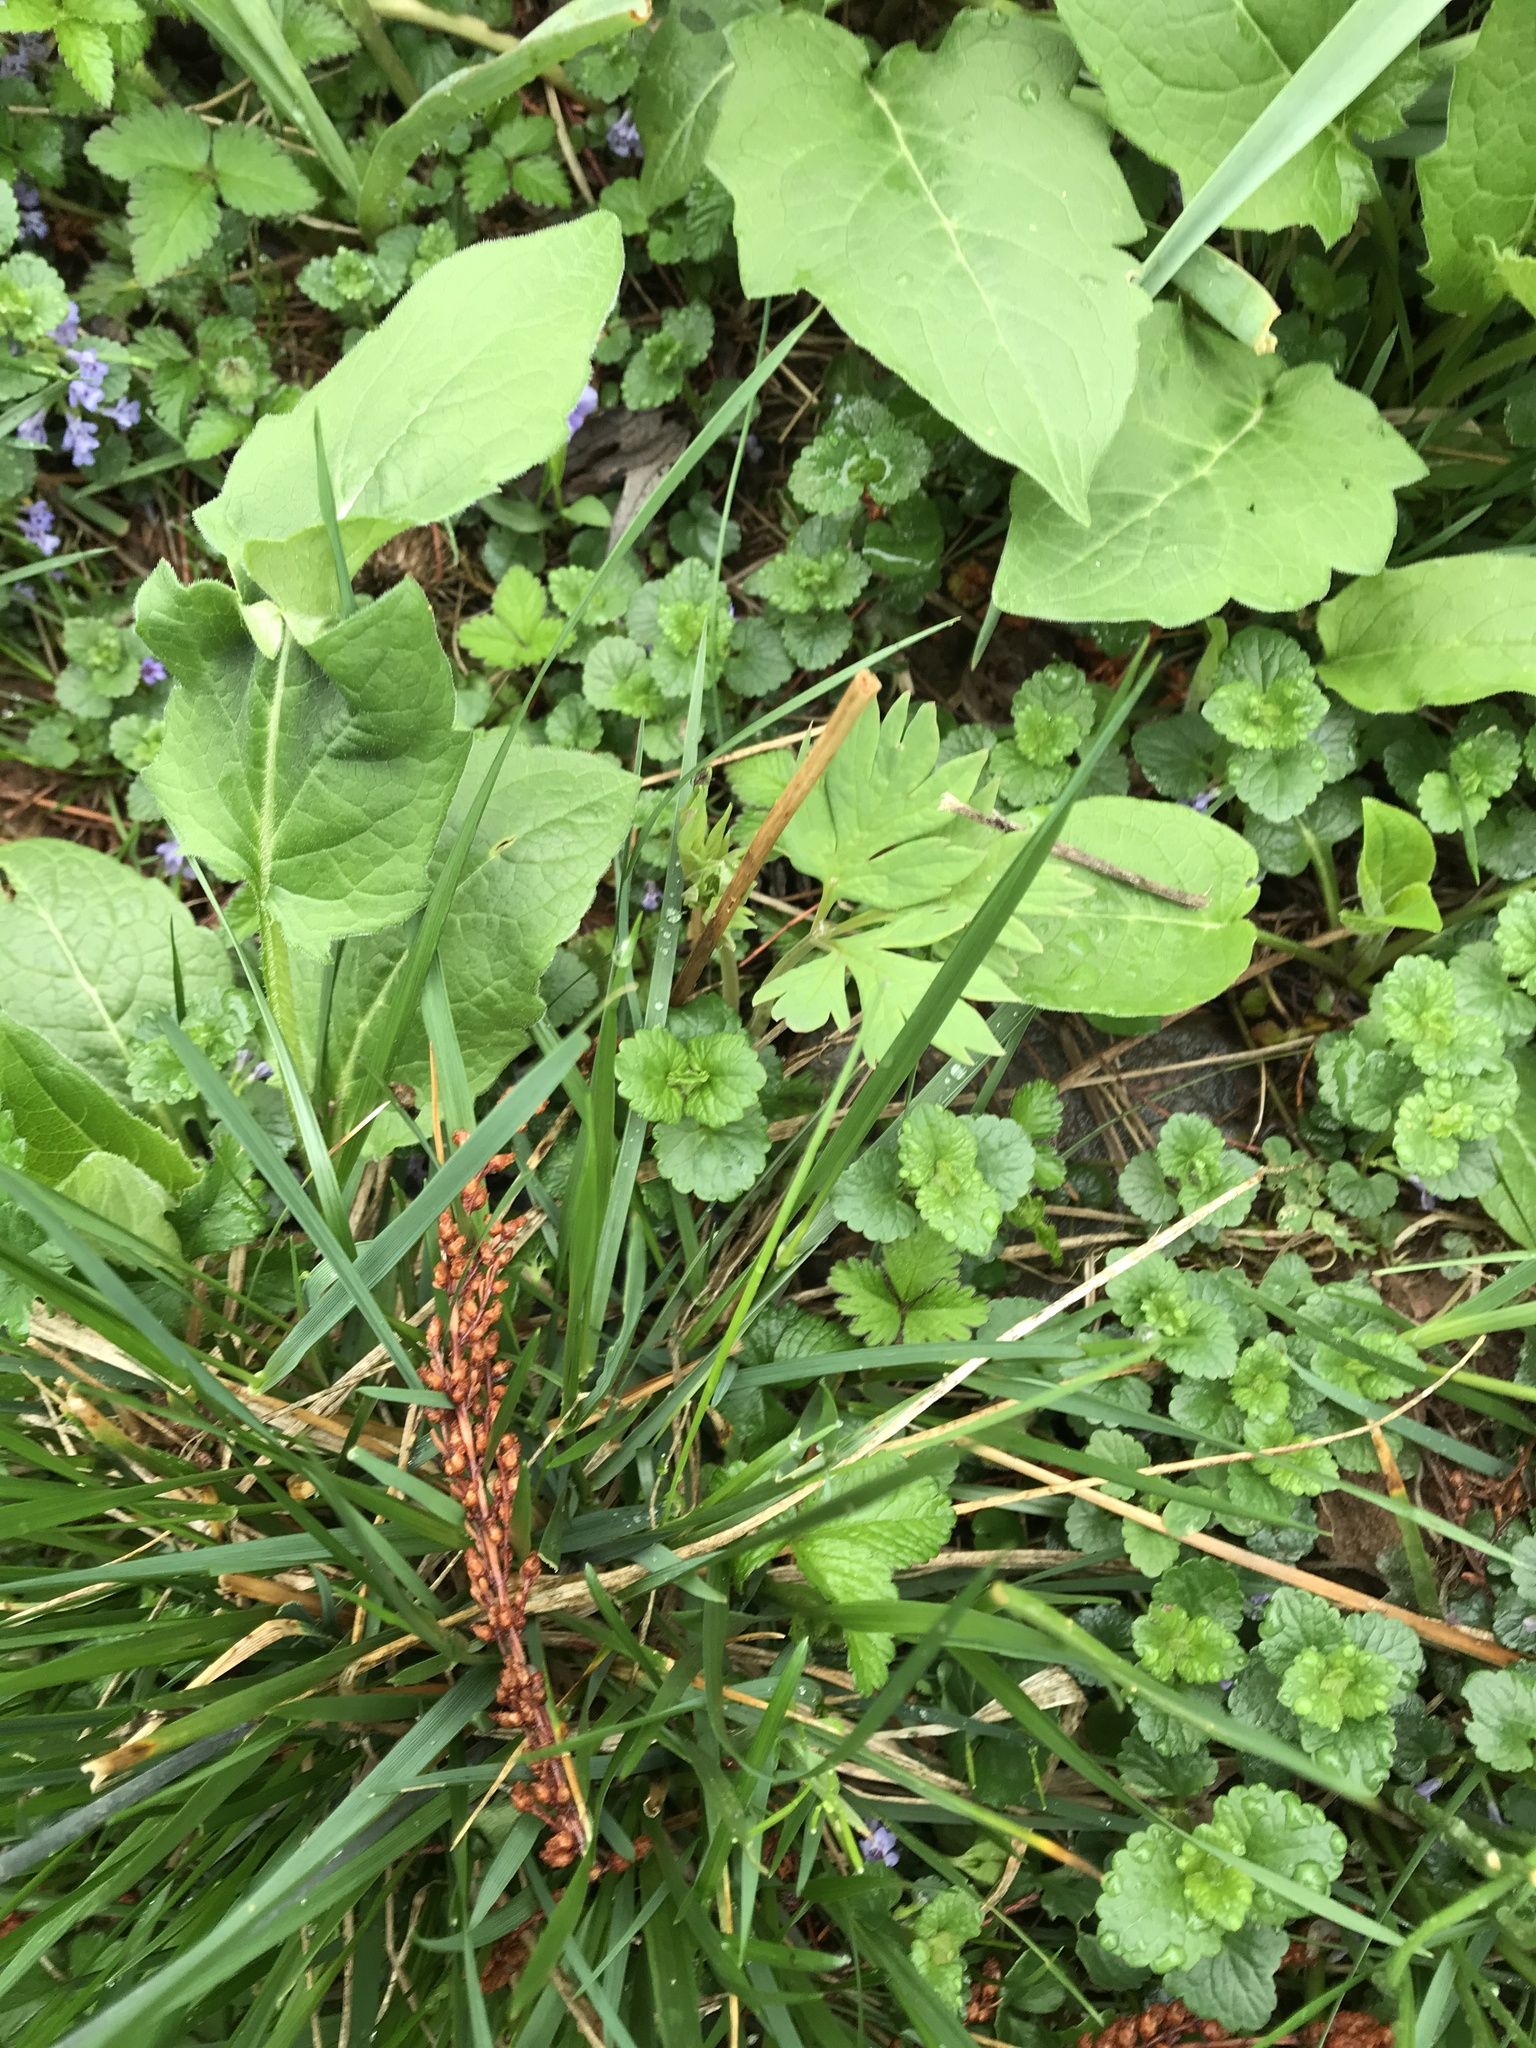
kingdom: Plantae
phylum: Tracheophyta
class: Magnoliopsida
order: Lamiales
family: Lamiaceae
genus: Glechoma
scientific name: Glechoma hederacea
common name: Ground ivy
